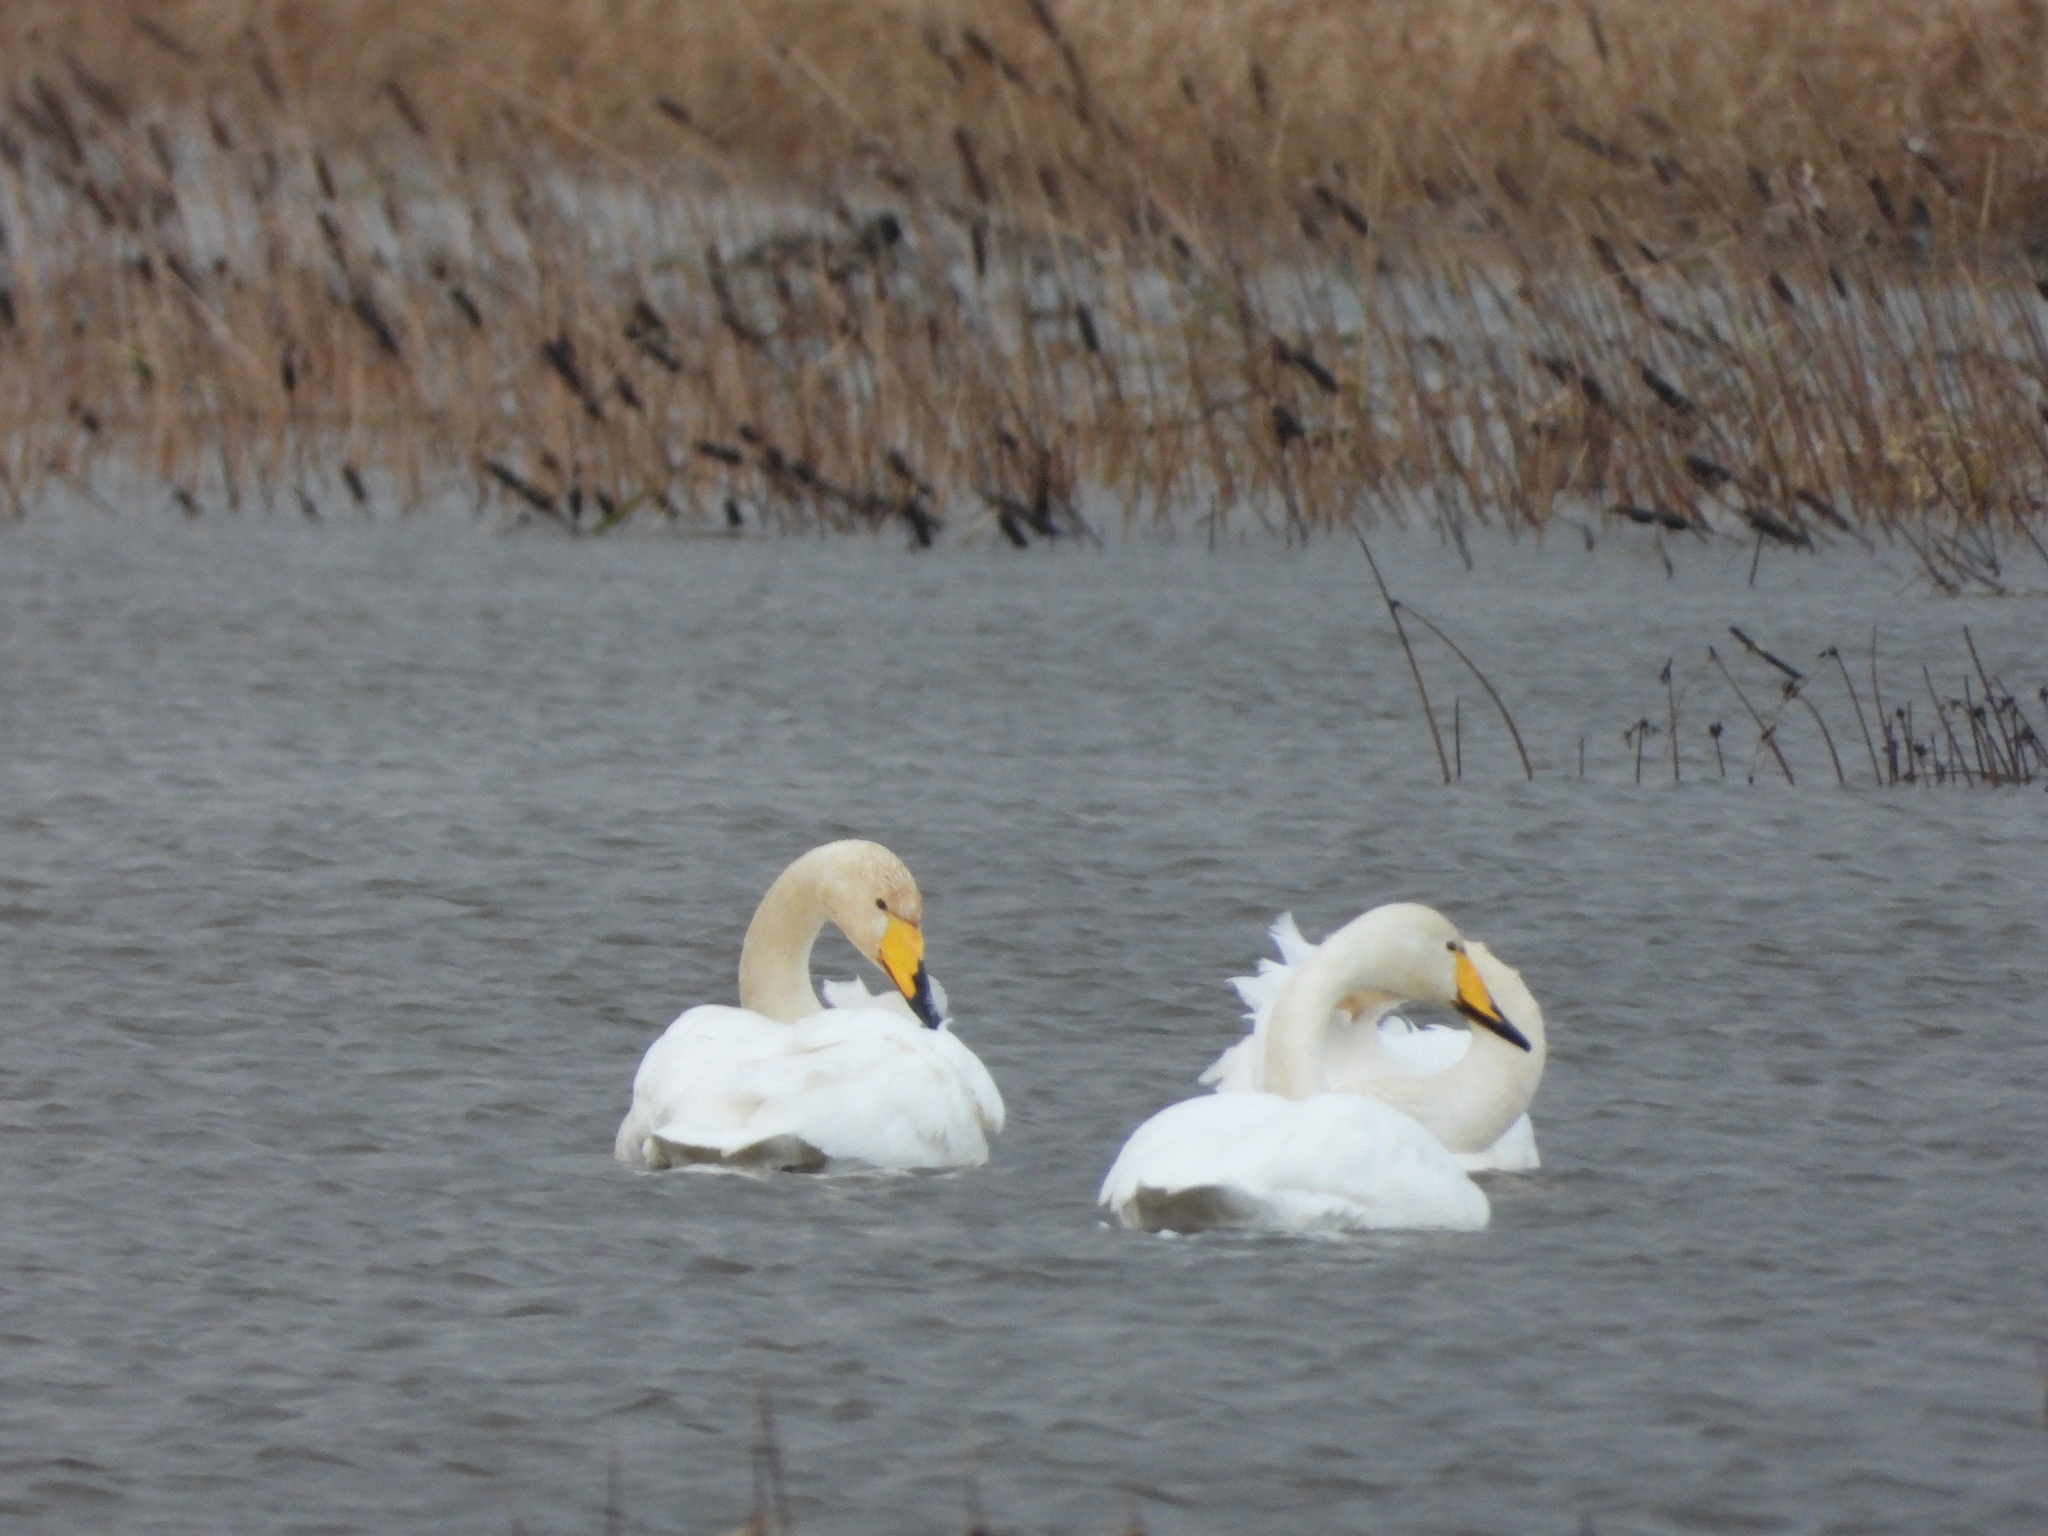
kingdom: Animalia
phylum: Chordata
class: Aves
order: Anseriformes
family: Anatidae
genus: Cygnus
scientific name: Cygnus cygnus
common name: Whooper swan
